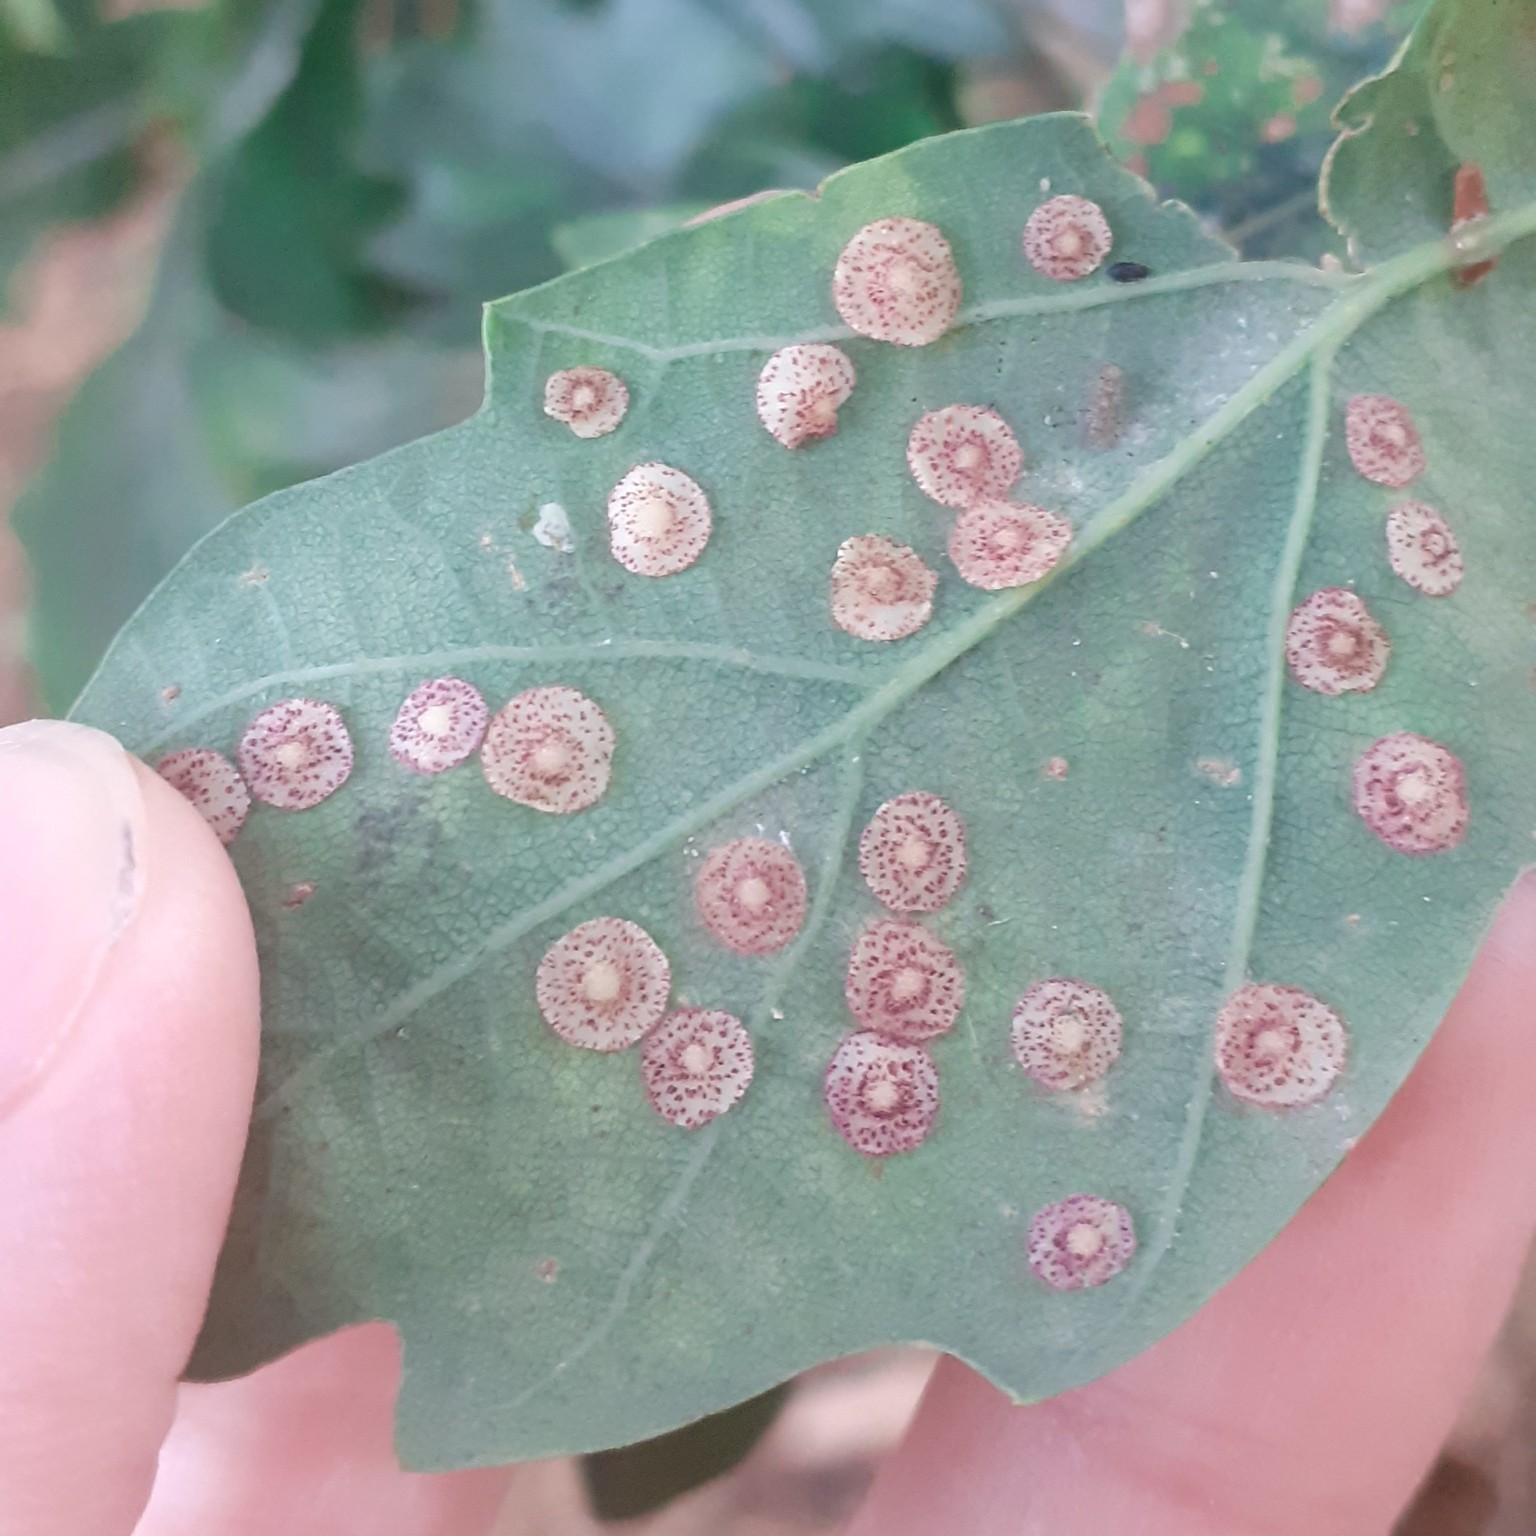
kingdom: Animalia
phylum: Arthropoda
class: Insecta
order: Hymenoptera
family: Cynipidae
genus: Neuroterus
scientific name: Neuroterus quercusbaccarum
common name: Common spangle gall
